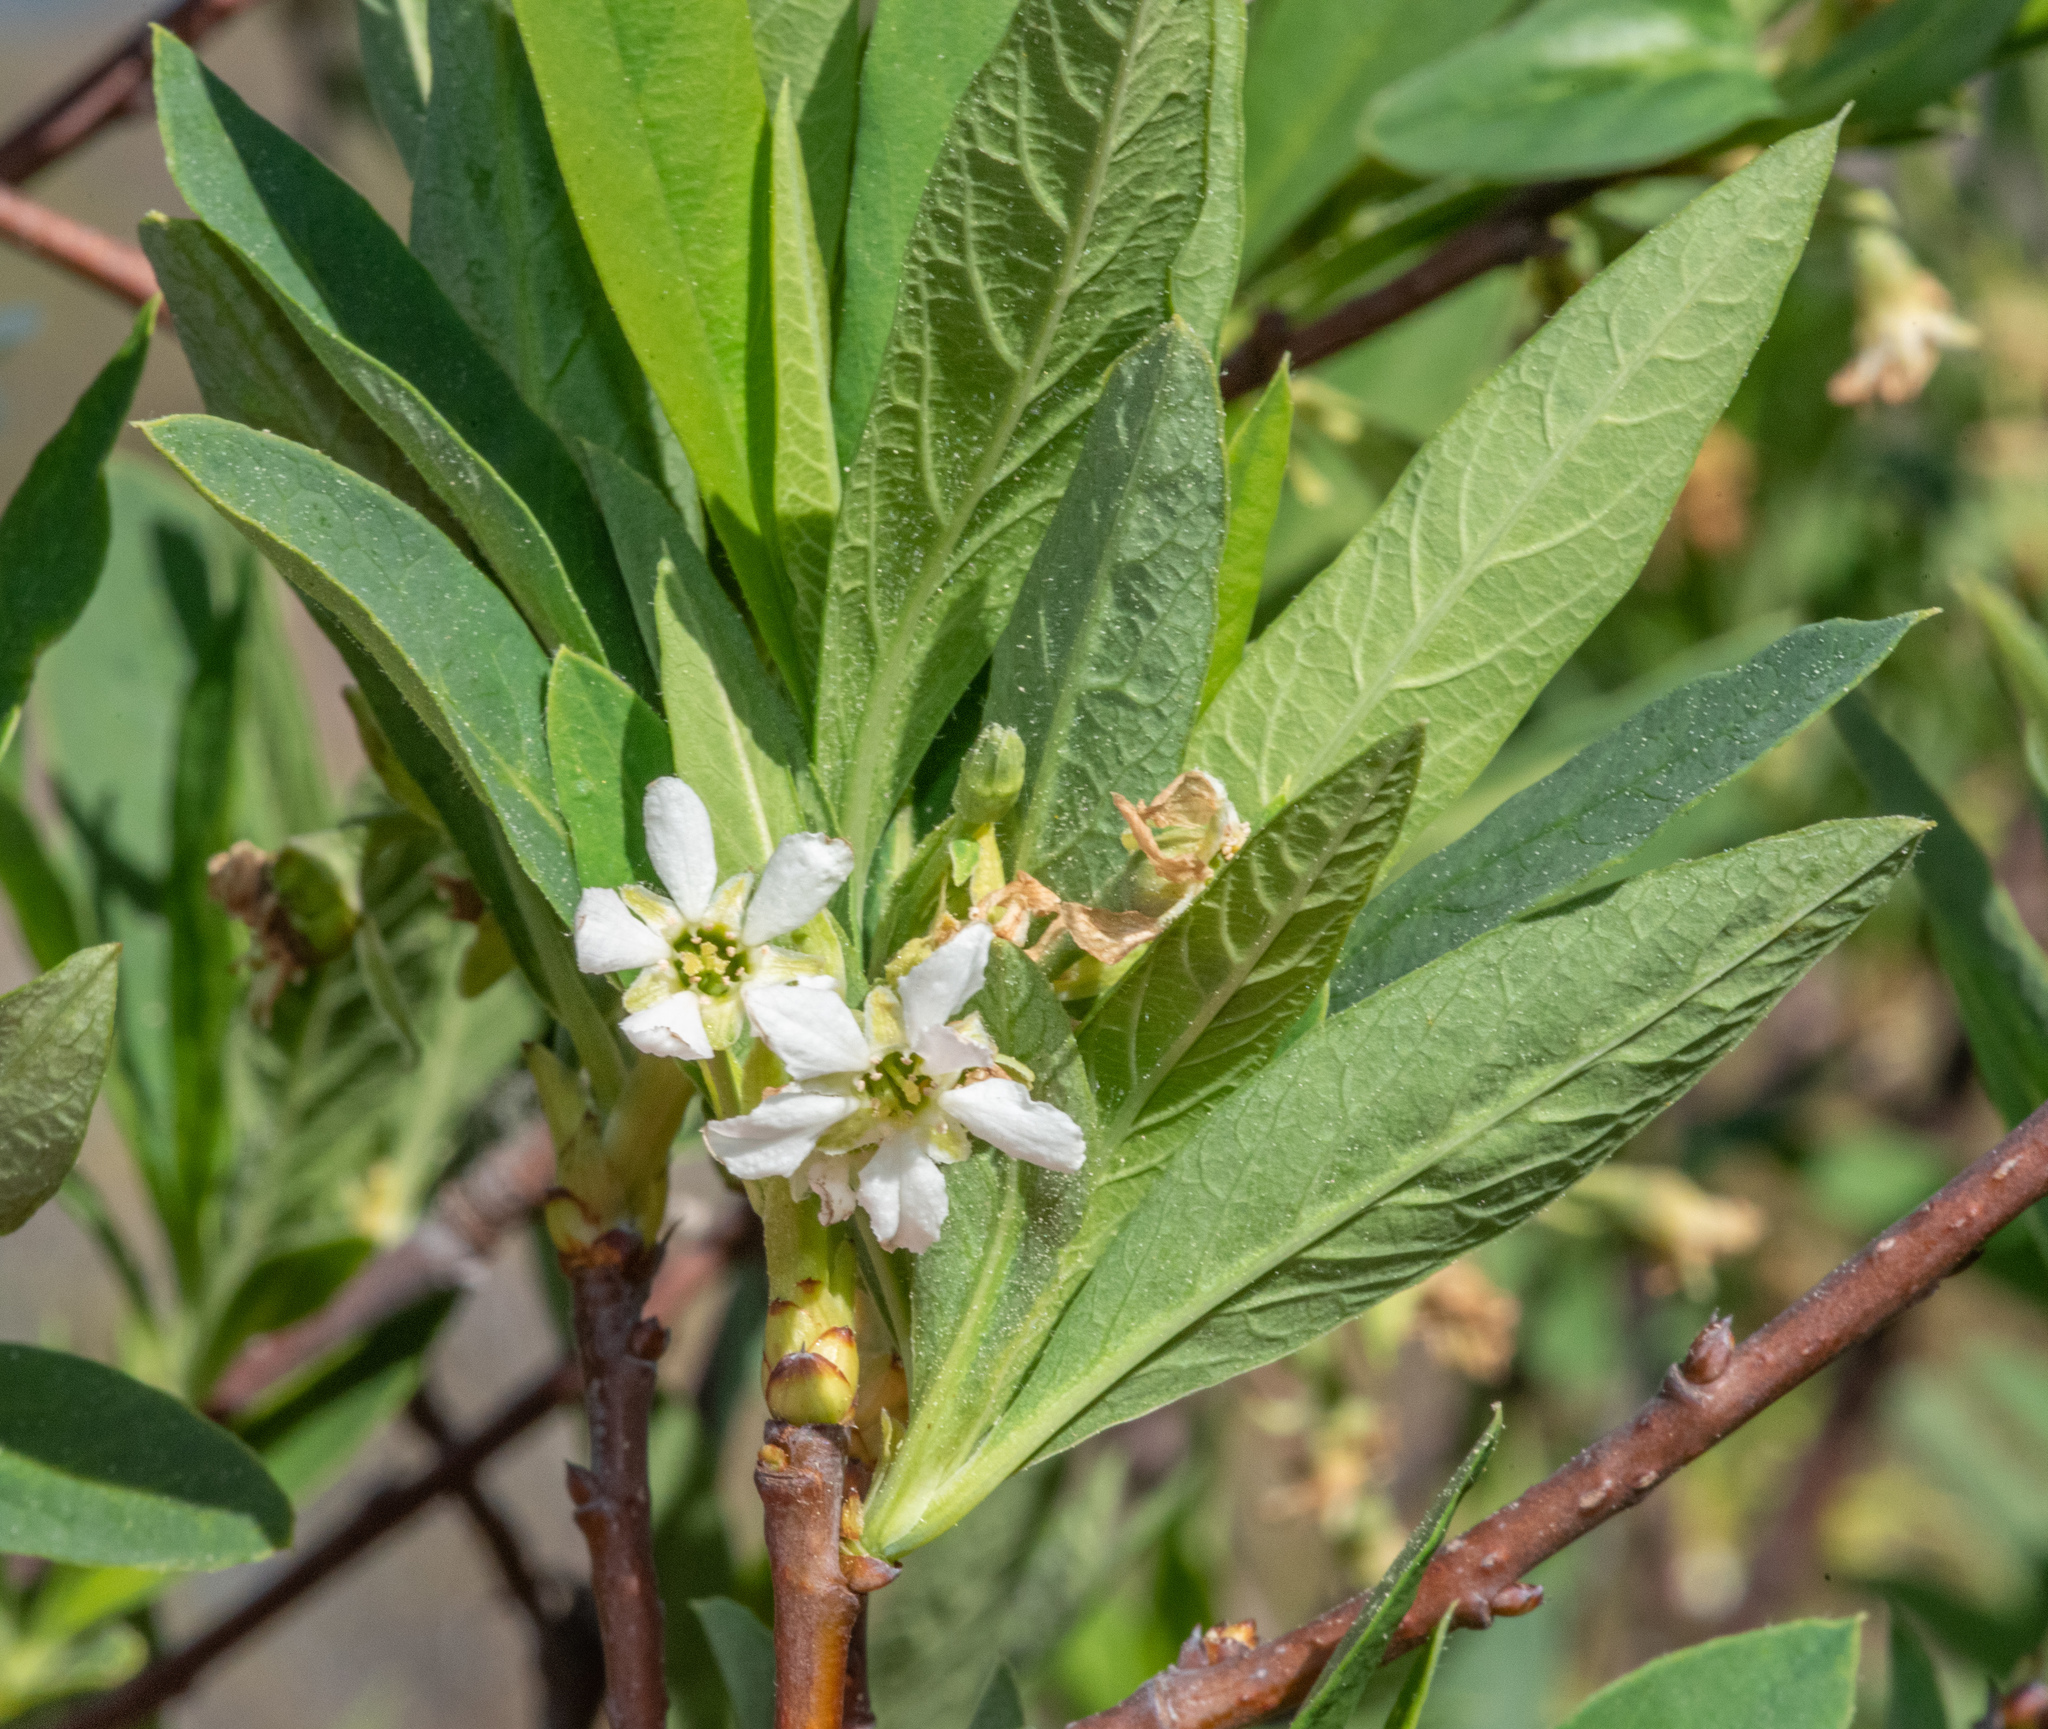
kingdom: Plantae
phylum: Tracheophyta
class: Magnoliopsida
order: Rosales
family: Rosaceae
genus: Oemleria
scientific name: Oemleria cerasiformis
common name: Osoberry
